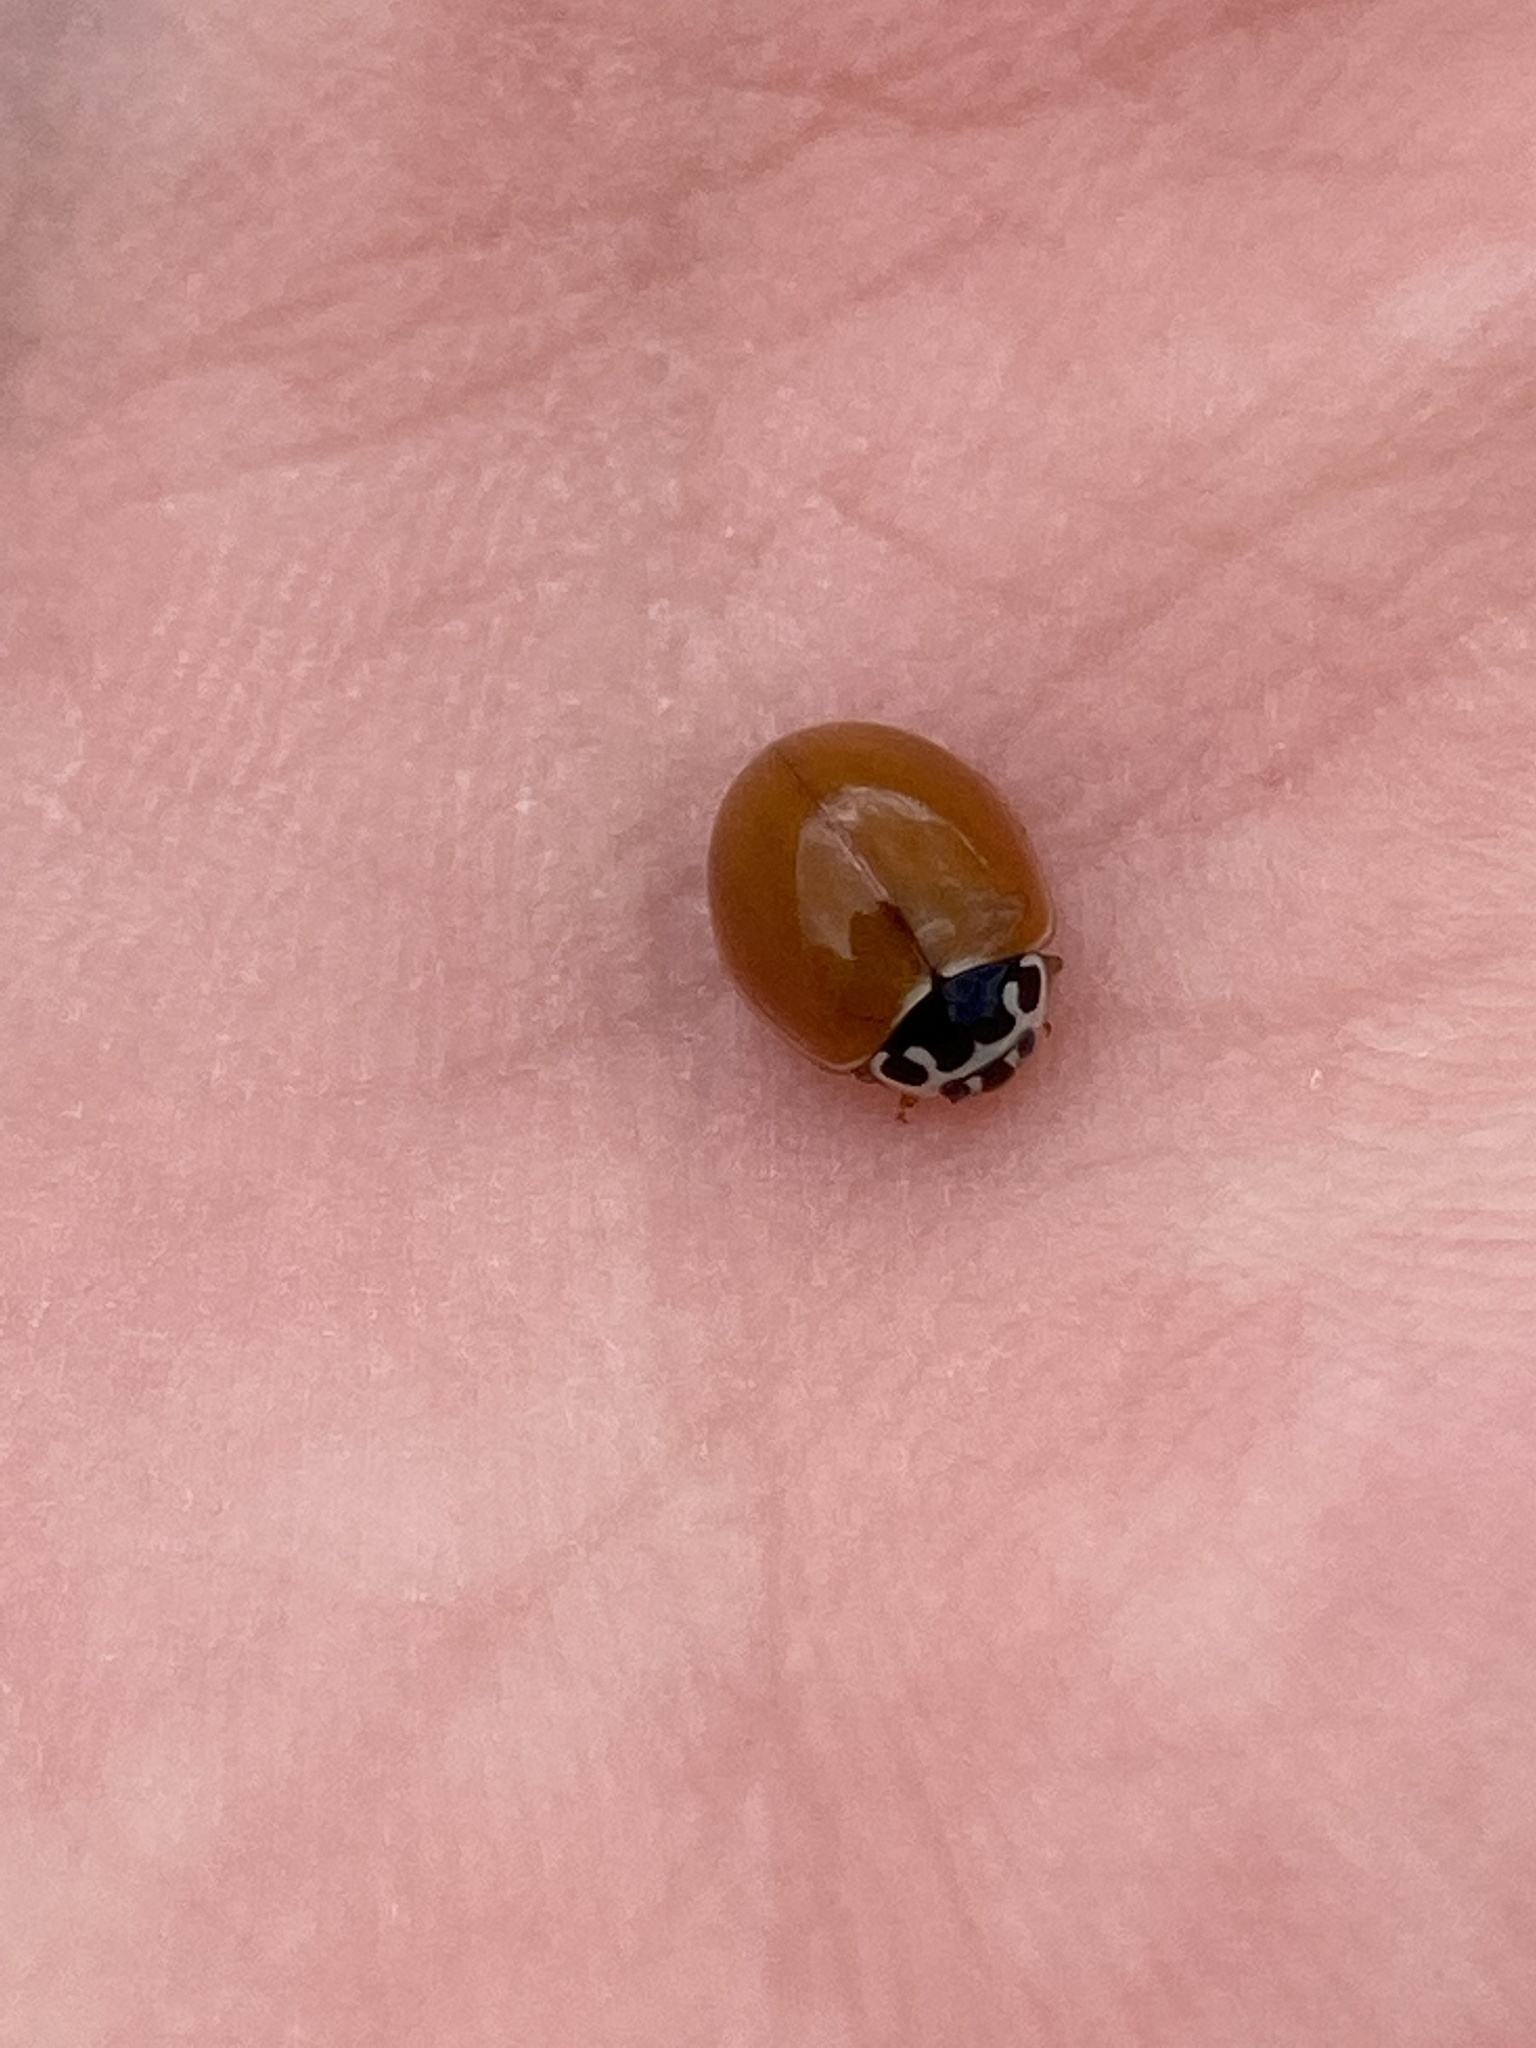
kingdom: Animalia
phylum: Arthropoda
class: Insecta
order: Coleoptera
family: Coccinellidae
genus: Cycloneda
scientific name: Cycloneda munda
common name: Polished lady beetle
